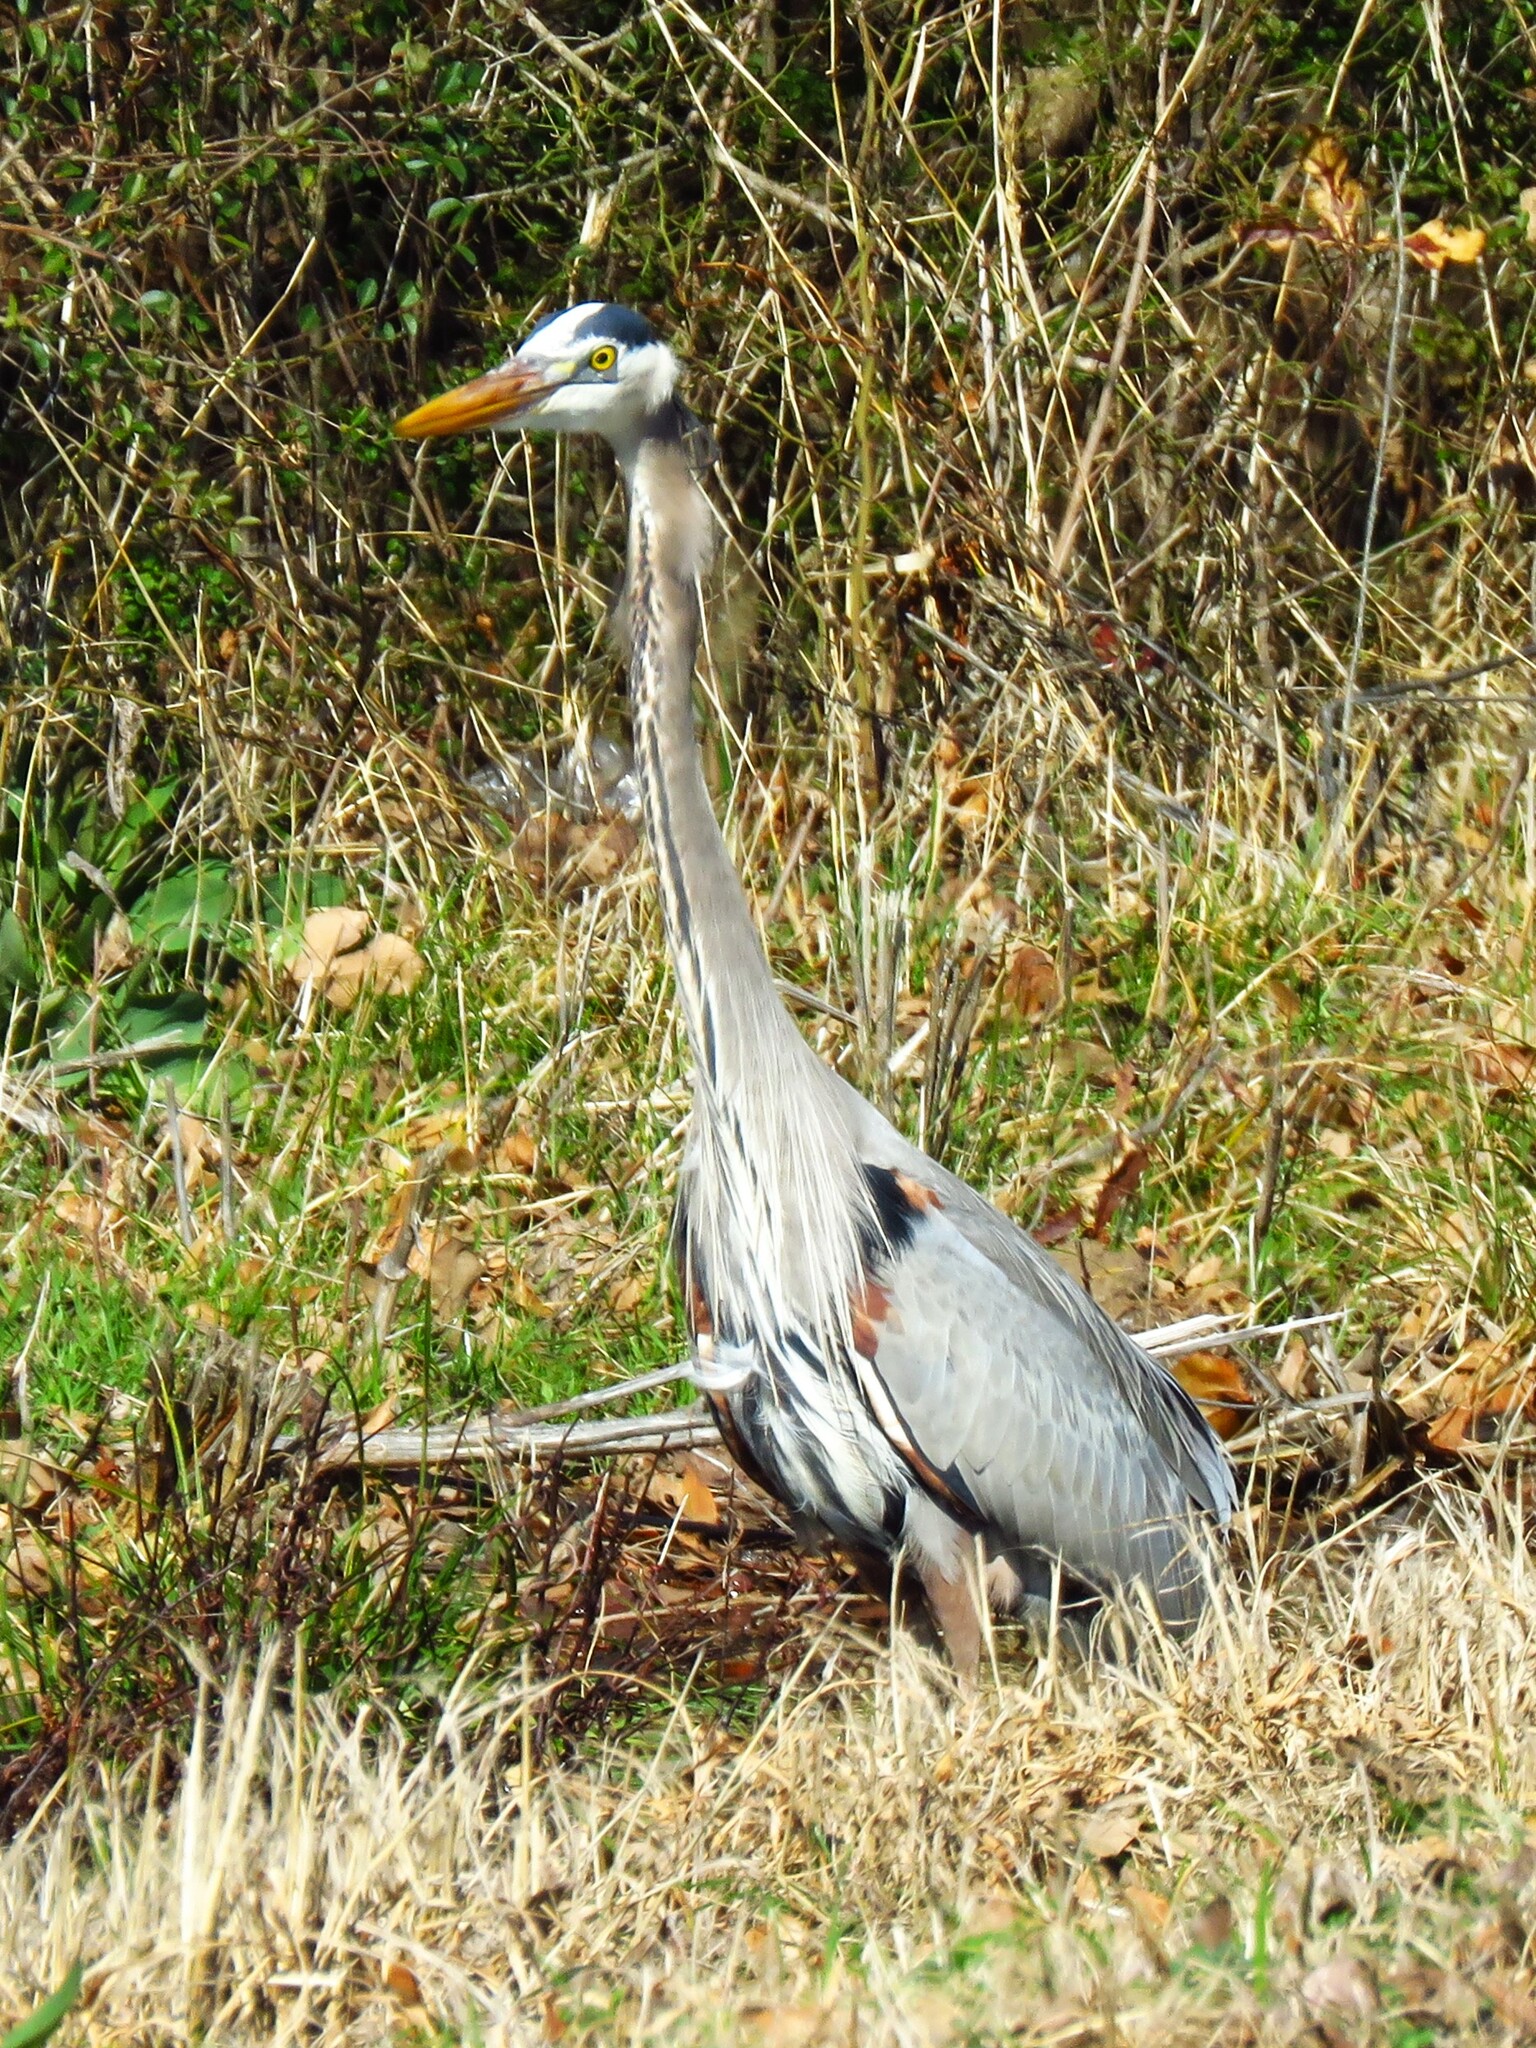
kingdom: Animalia
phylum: Chordata
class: Aves
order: Pelecaniformes
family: Ardeidae
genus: Ardea
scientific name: Ardea herodias
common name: Great blue heron
